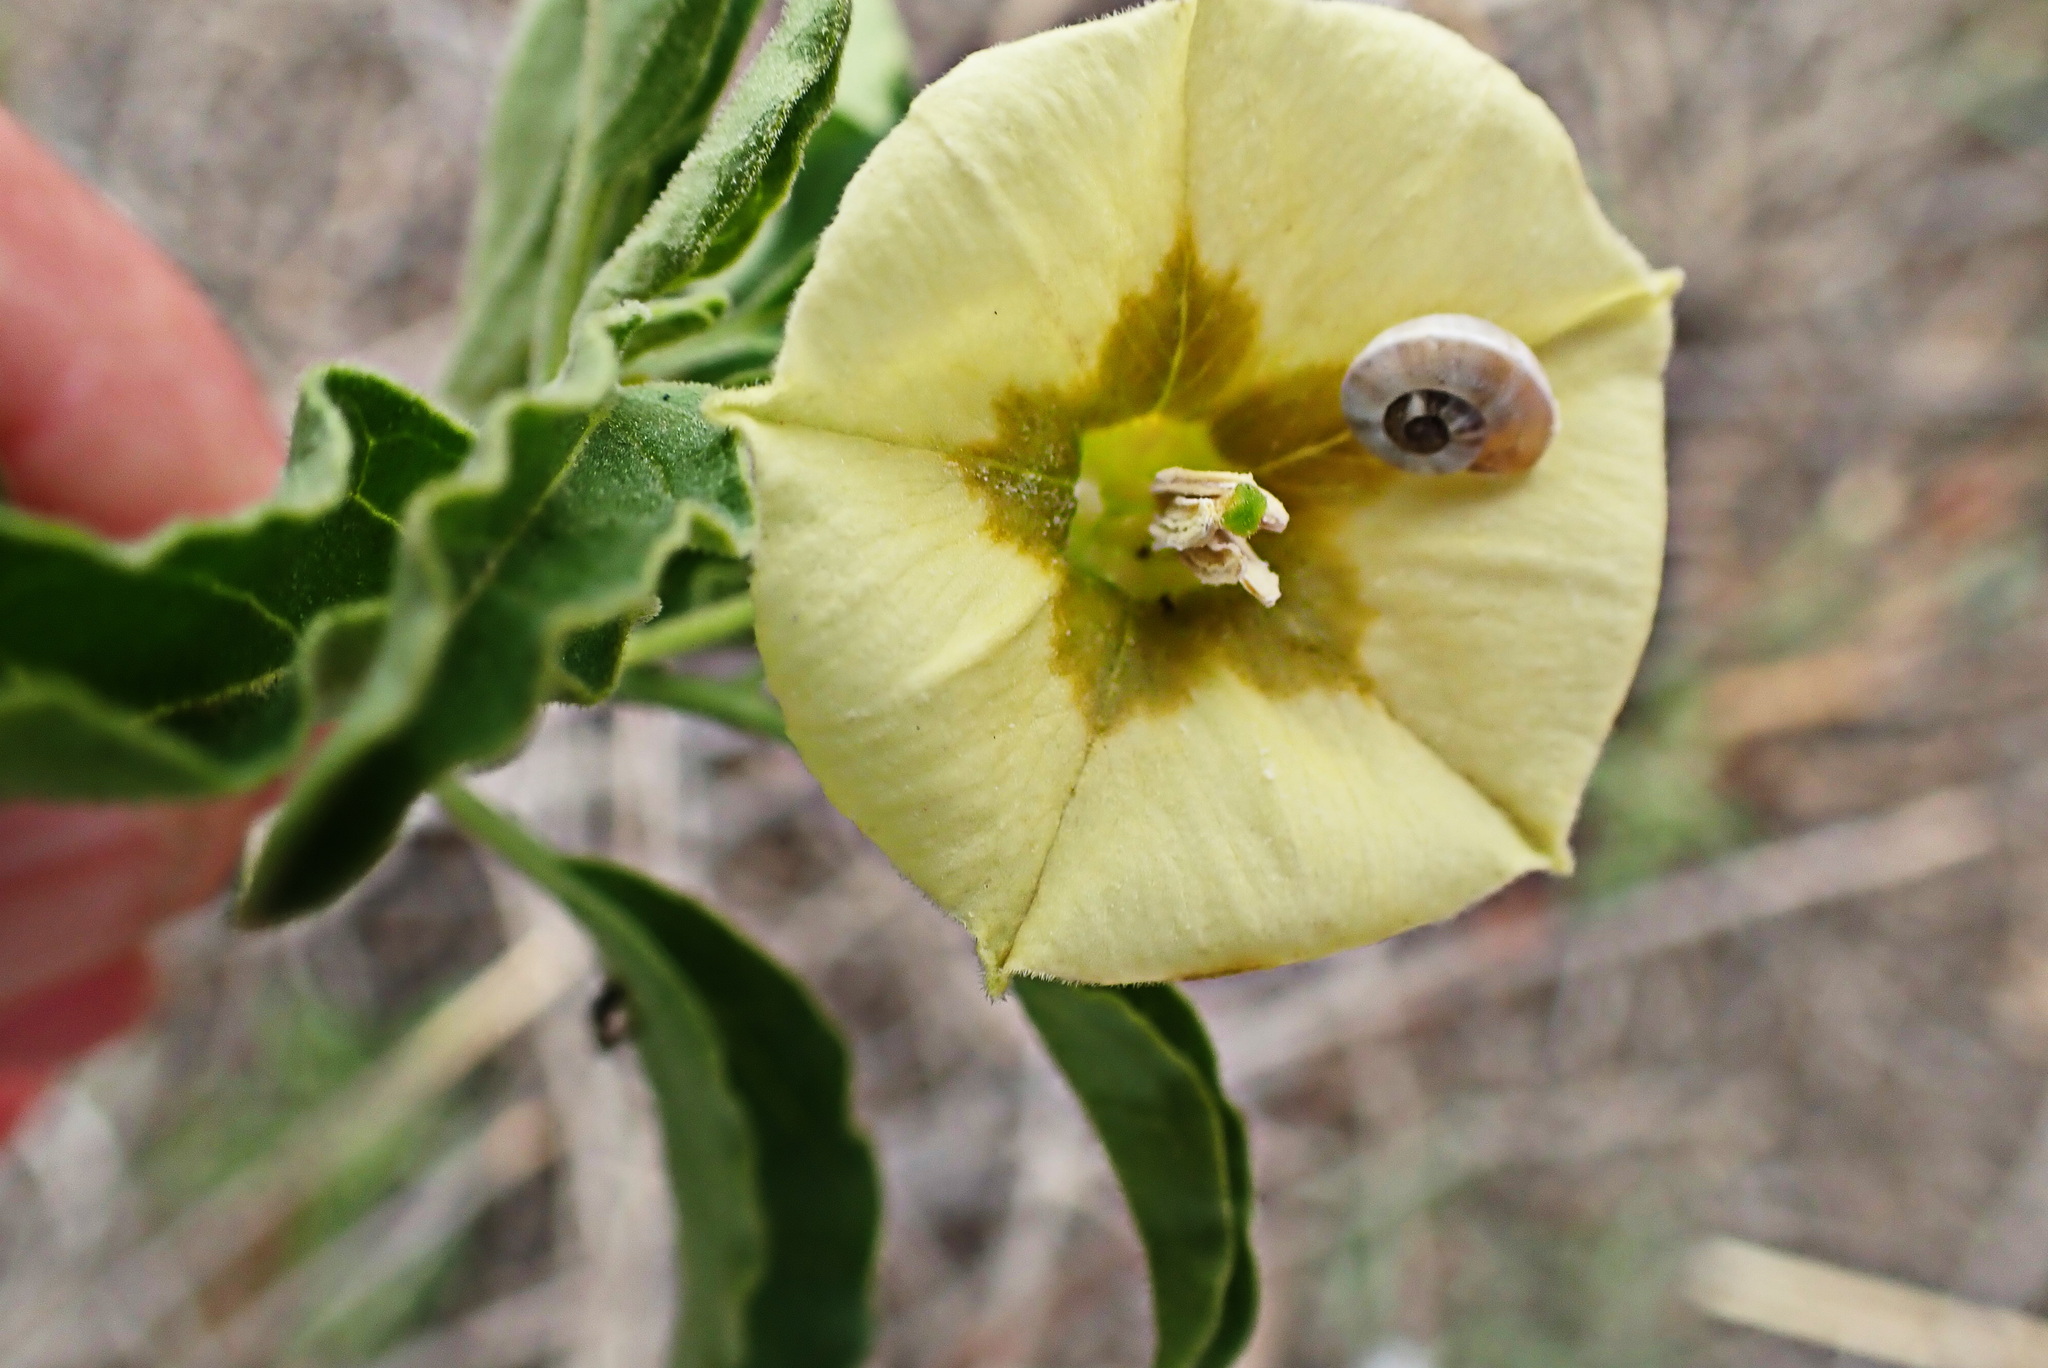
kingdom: Plantae
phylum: Tracheophyta
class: Magnoliopsida
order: Solanales
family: Solanaceae
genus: Physalis
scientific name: Physalis viscosa
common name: Stellate ground-cherry
